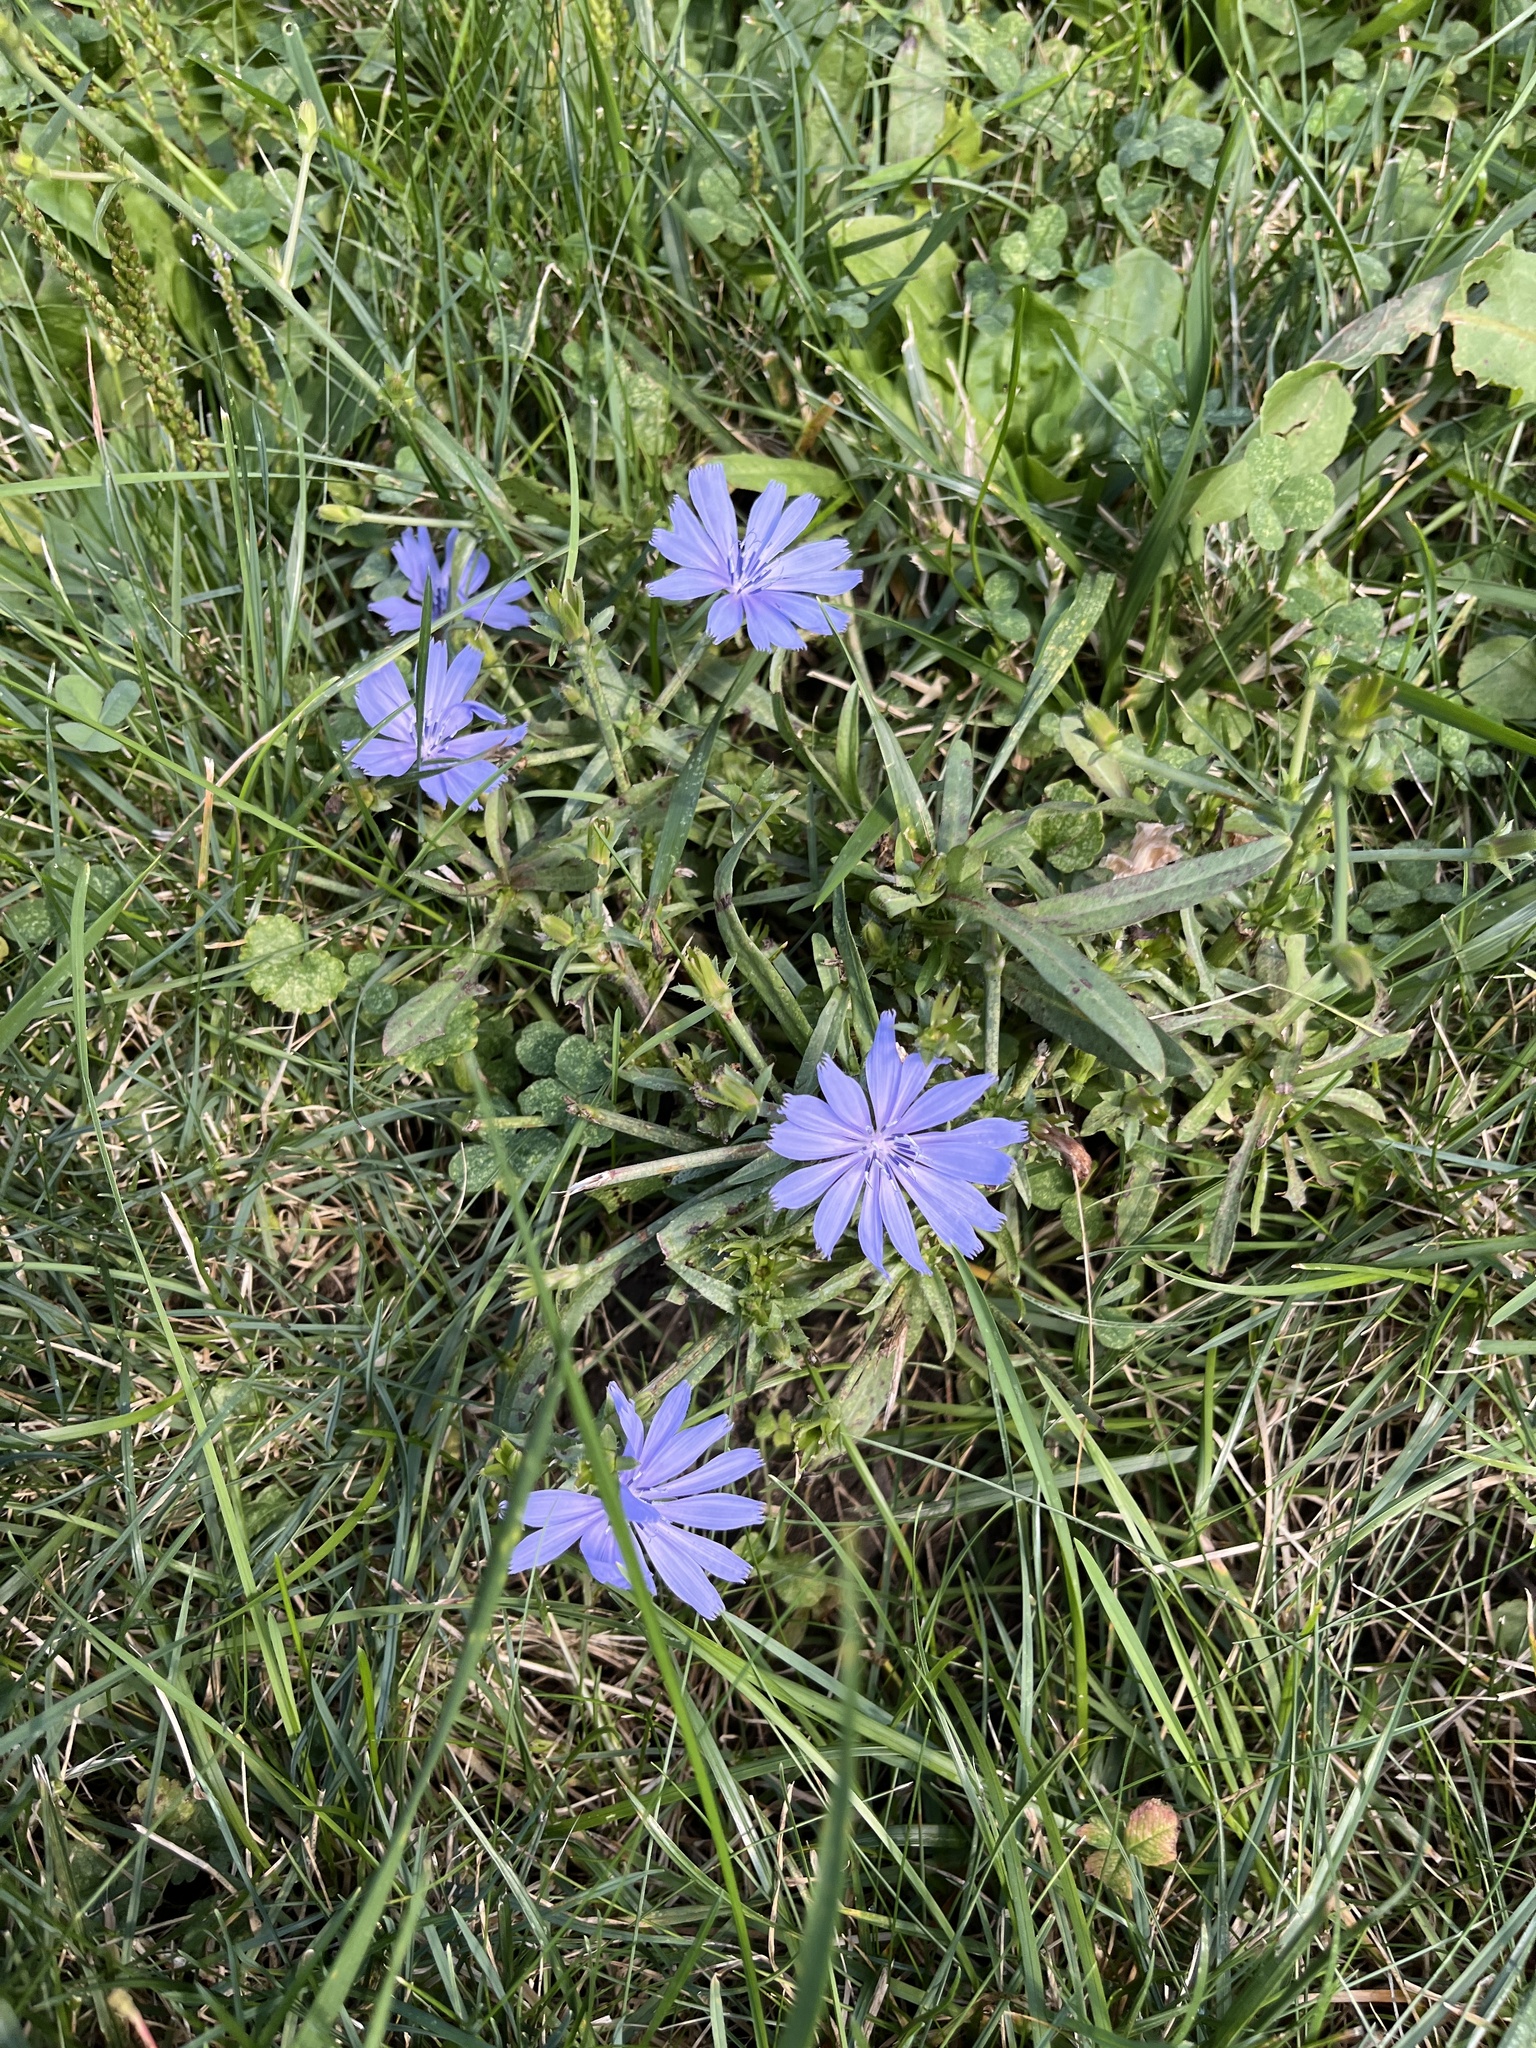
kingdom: Plantae
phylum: Tracheophyta
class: Magnoliopsida
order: Asterales
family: Asteraceae
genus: Cichorium
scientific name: Cichorium intybus
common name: Chicory
